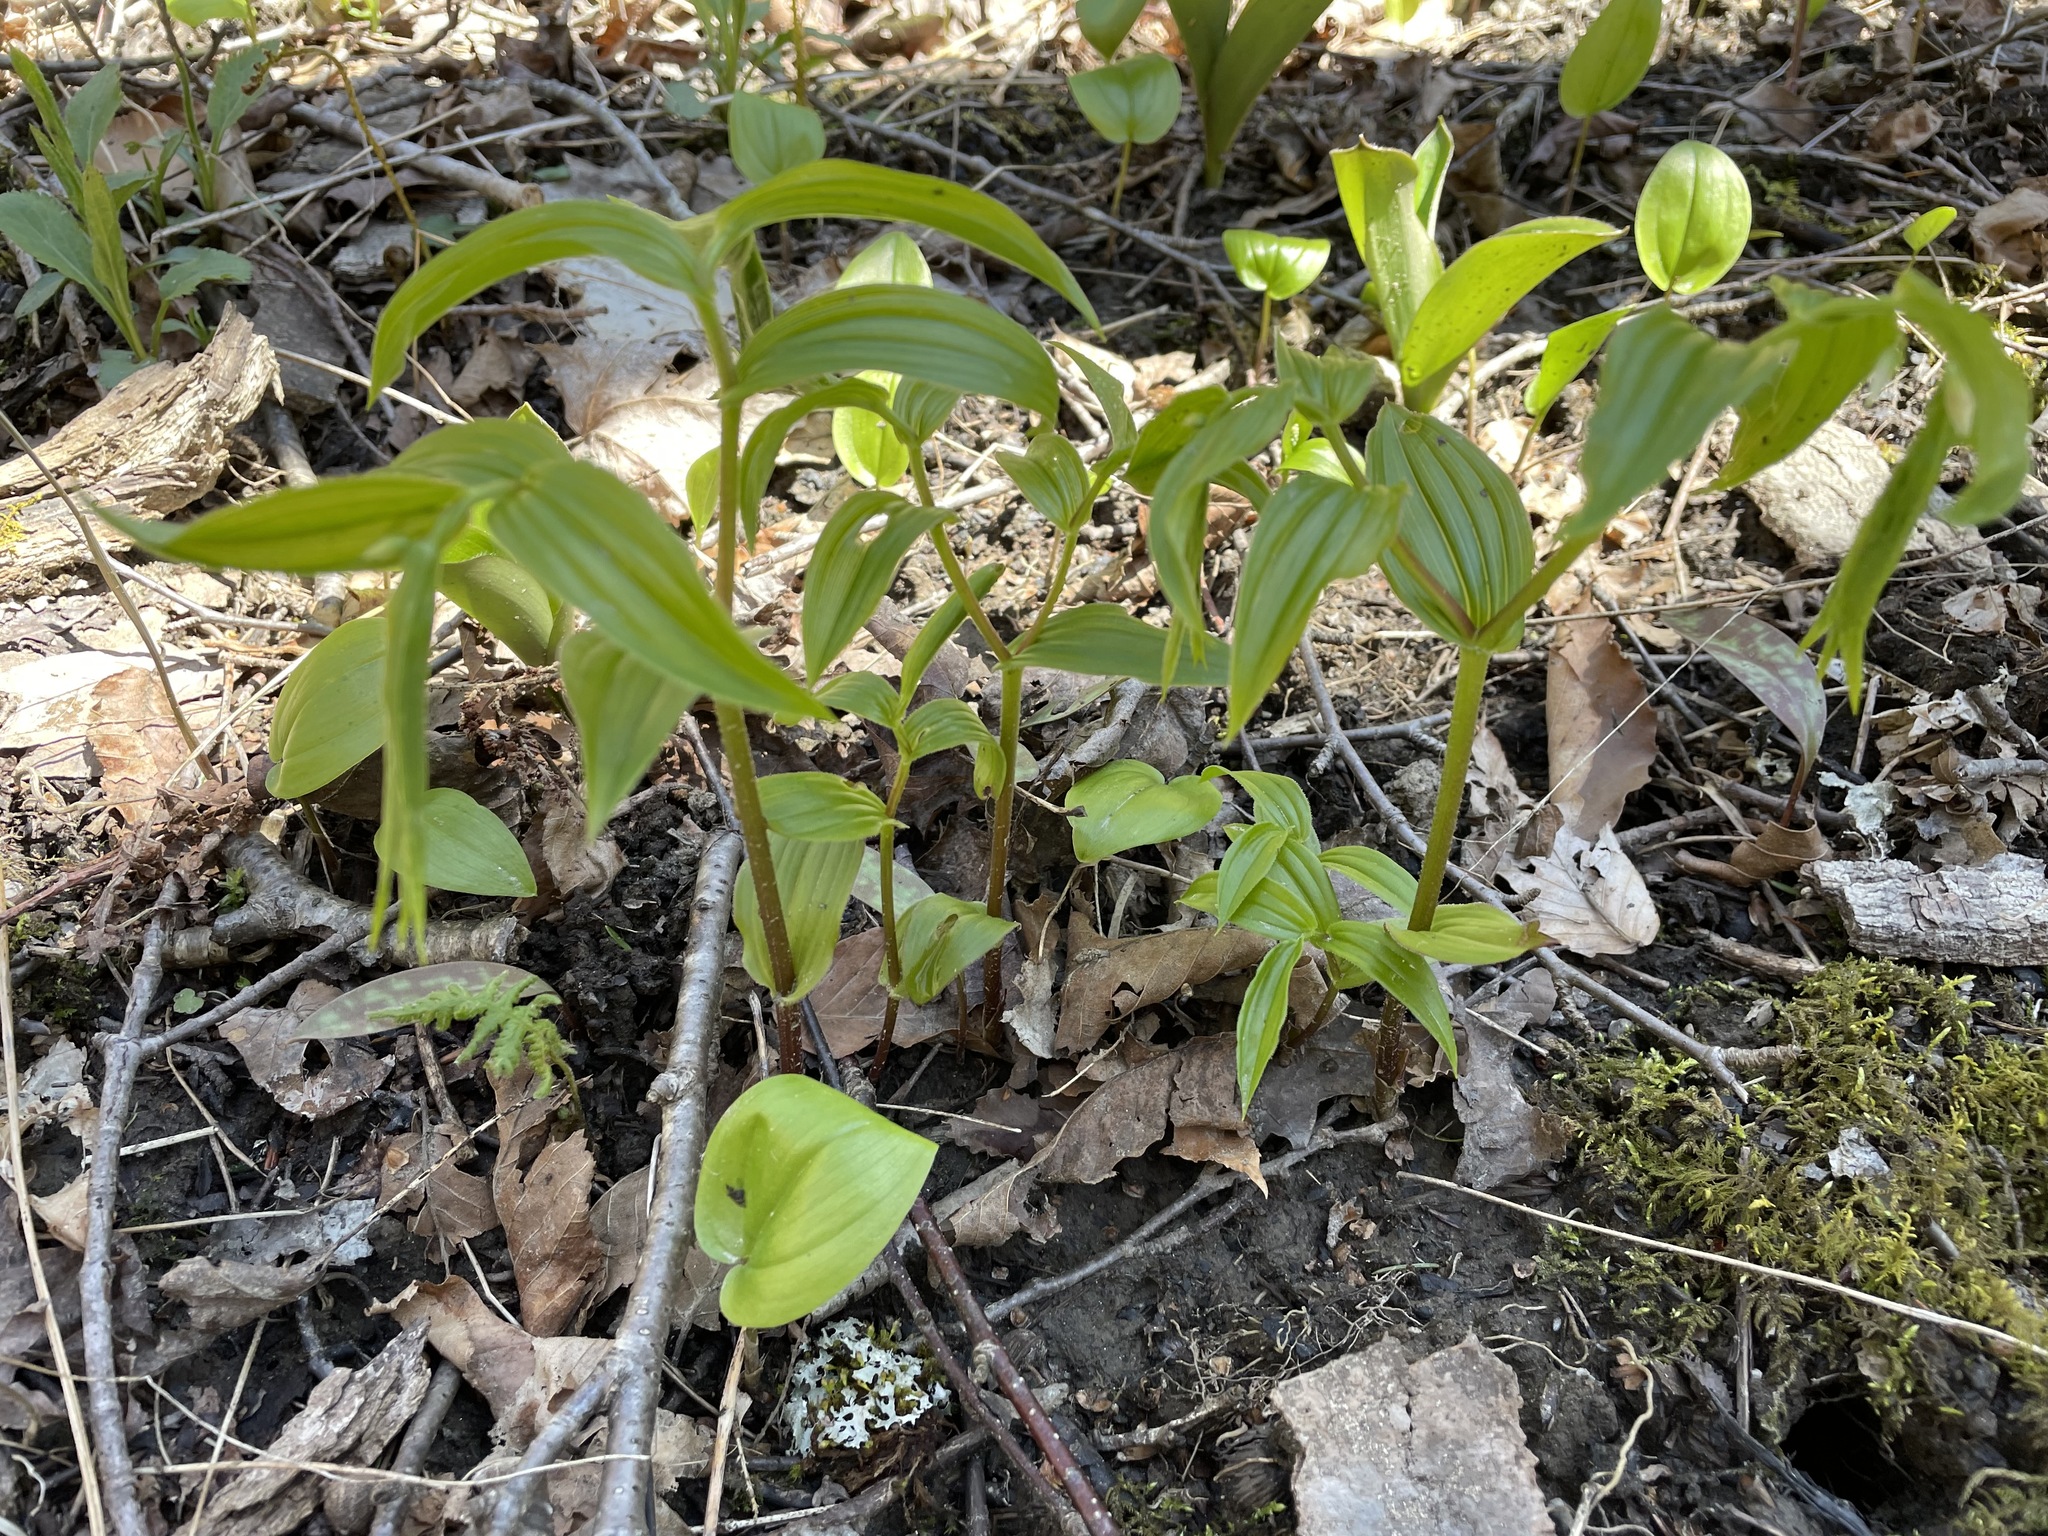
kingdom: Plantae
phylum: Tracheophyta
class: Liliopsida
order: Liliales
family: Liliaceae
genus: Streptopus
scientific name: Streptopus lanceolatus
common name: Rose mandarin
